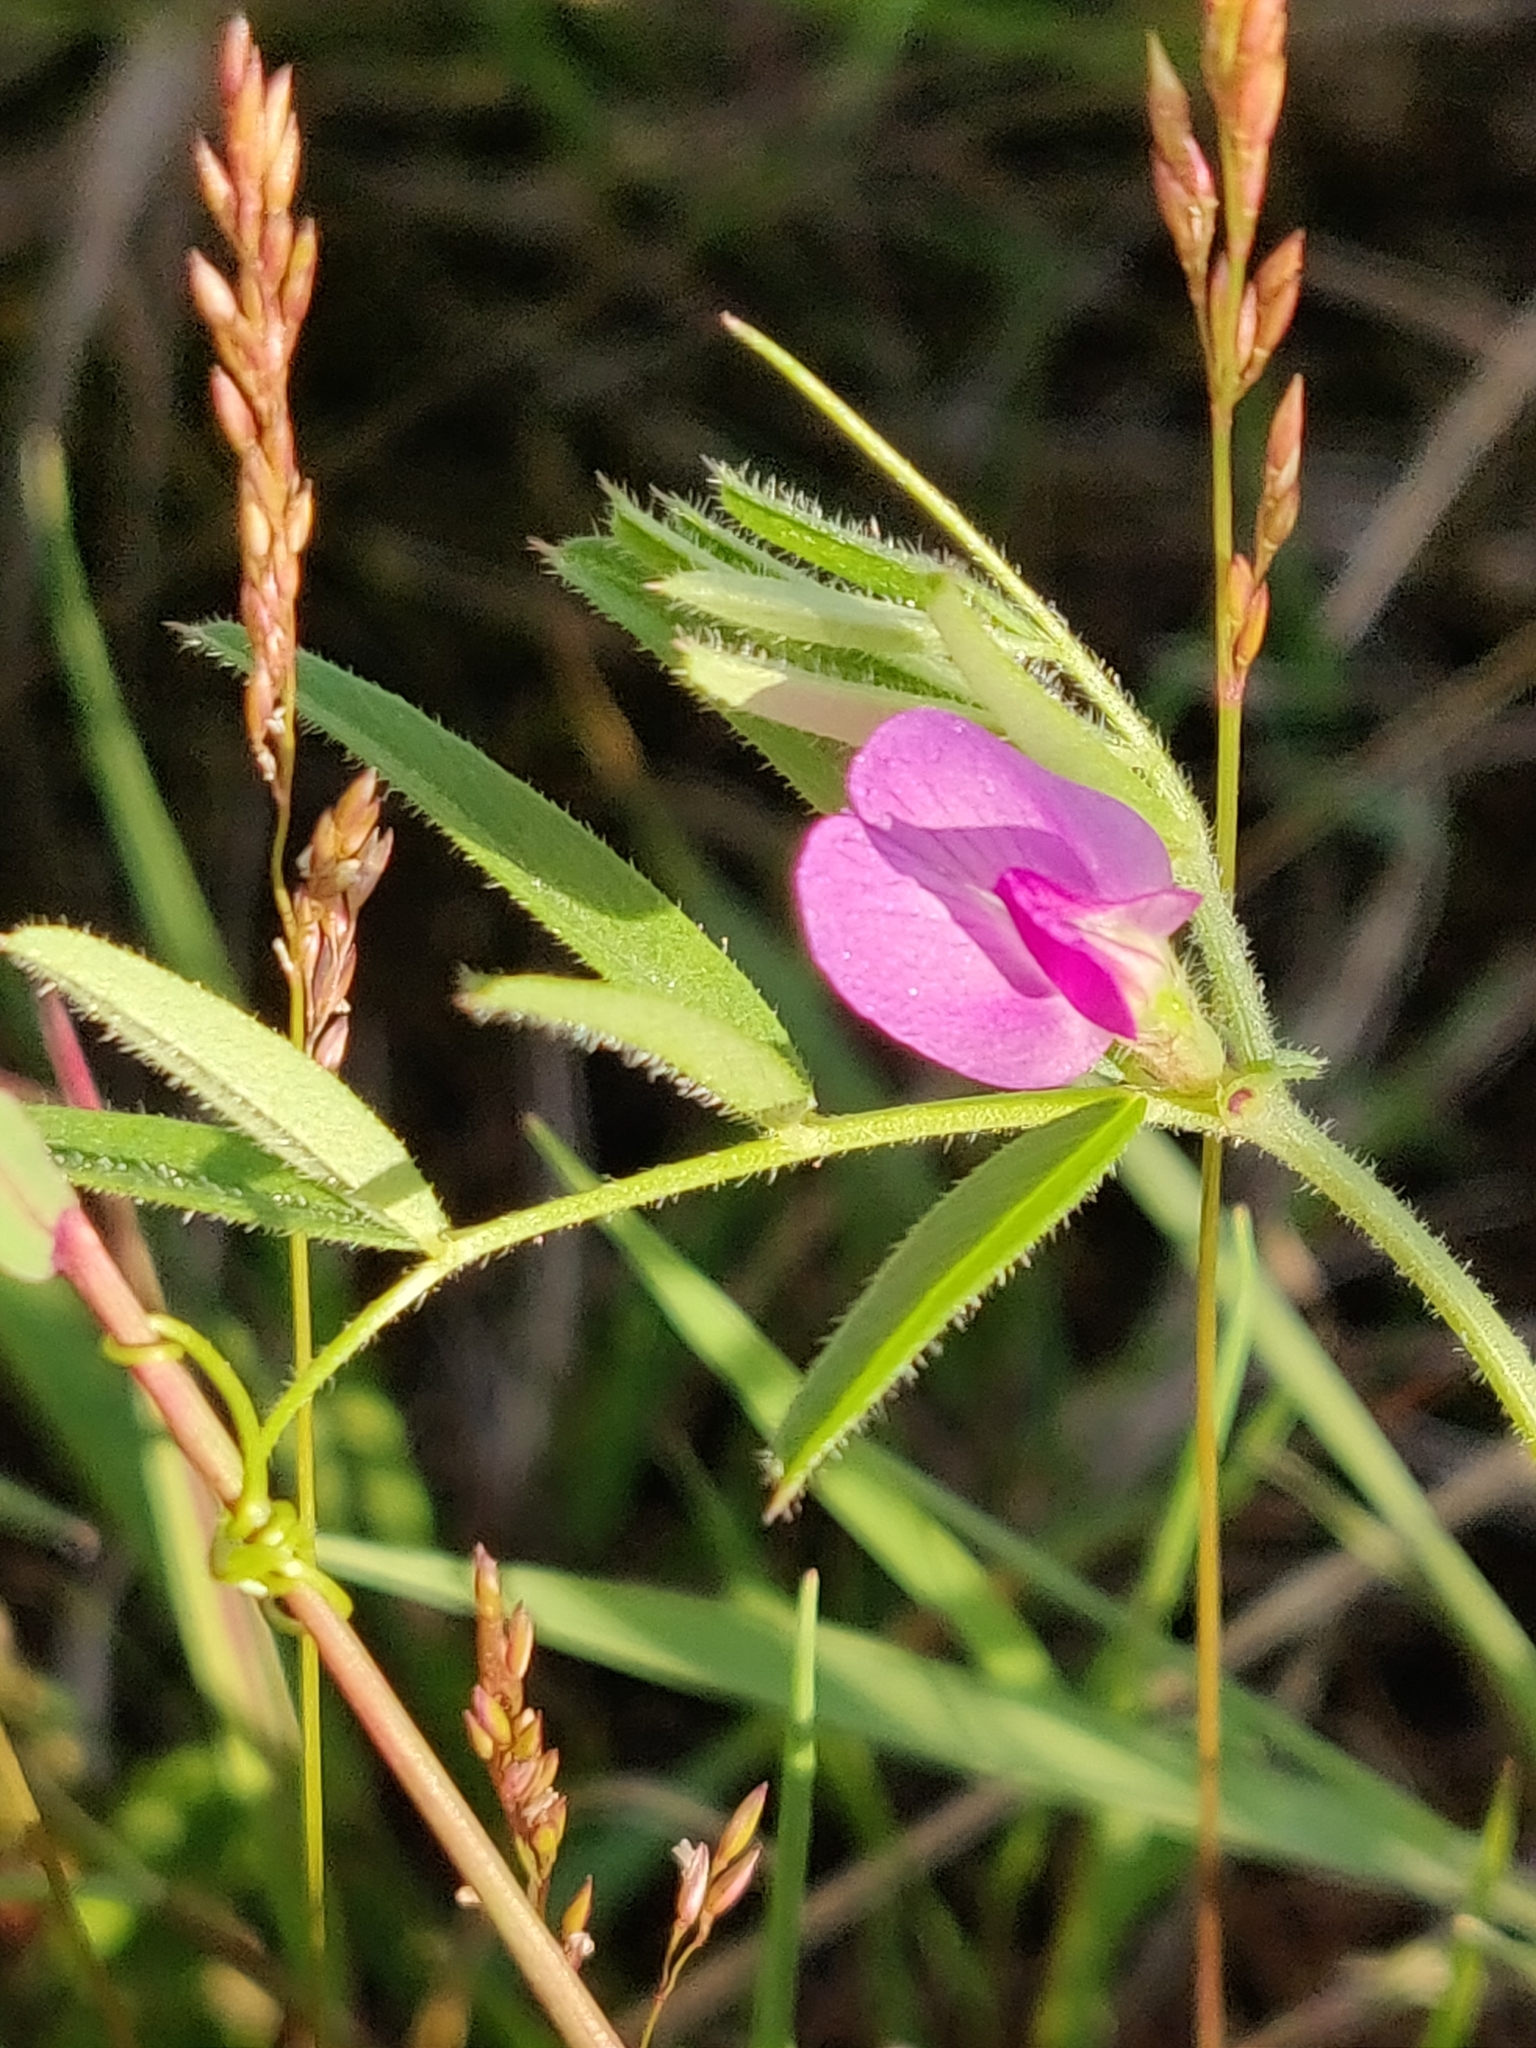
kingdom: Plantae
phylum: Tracheophyta
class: Magnoliopsida
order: Fabales
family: Fabaceae
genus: Vicia
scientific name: Vicia sativa
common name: Garden vetch
